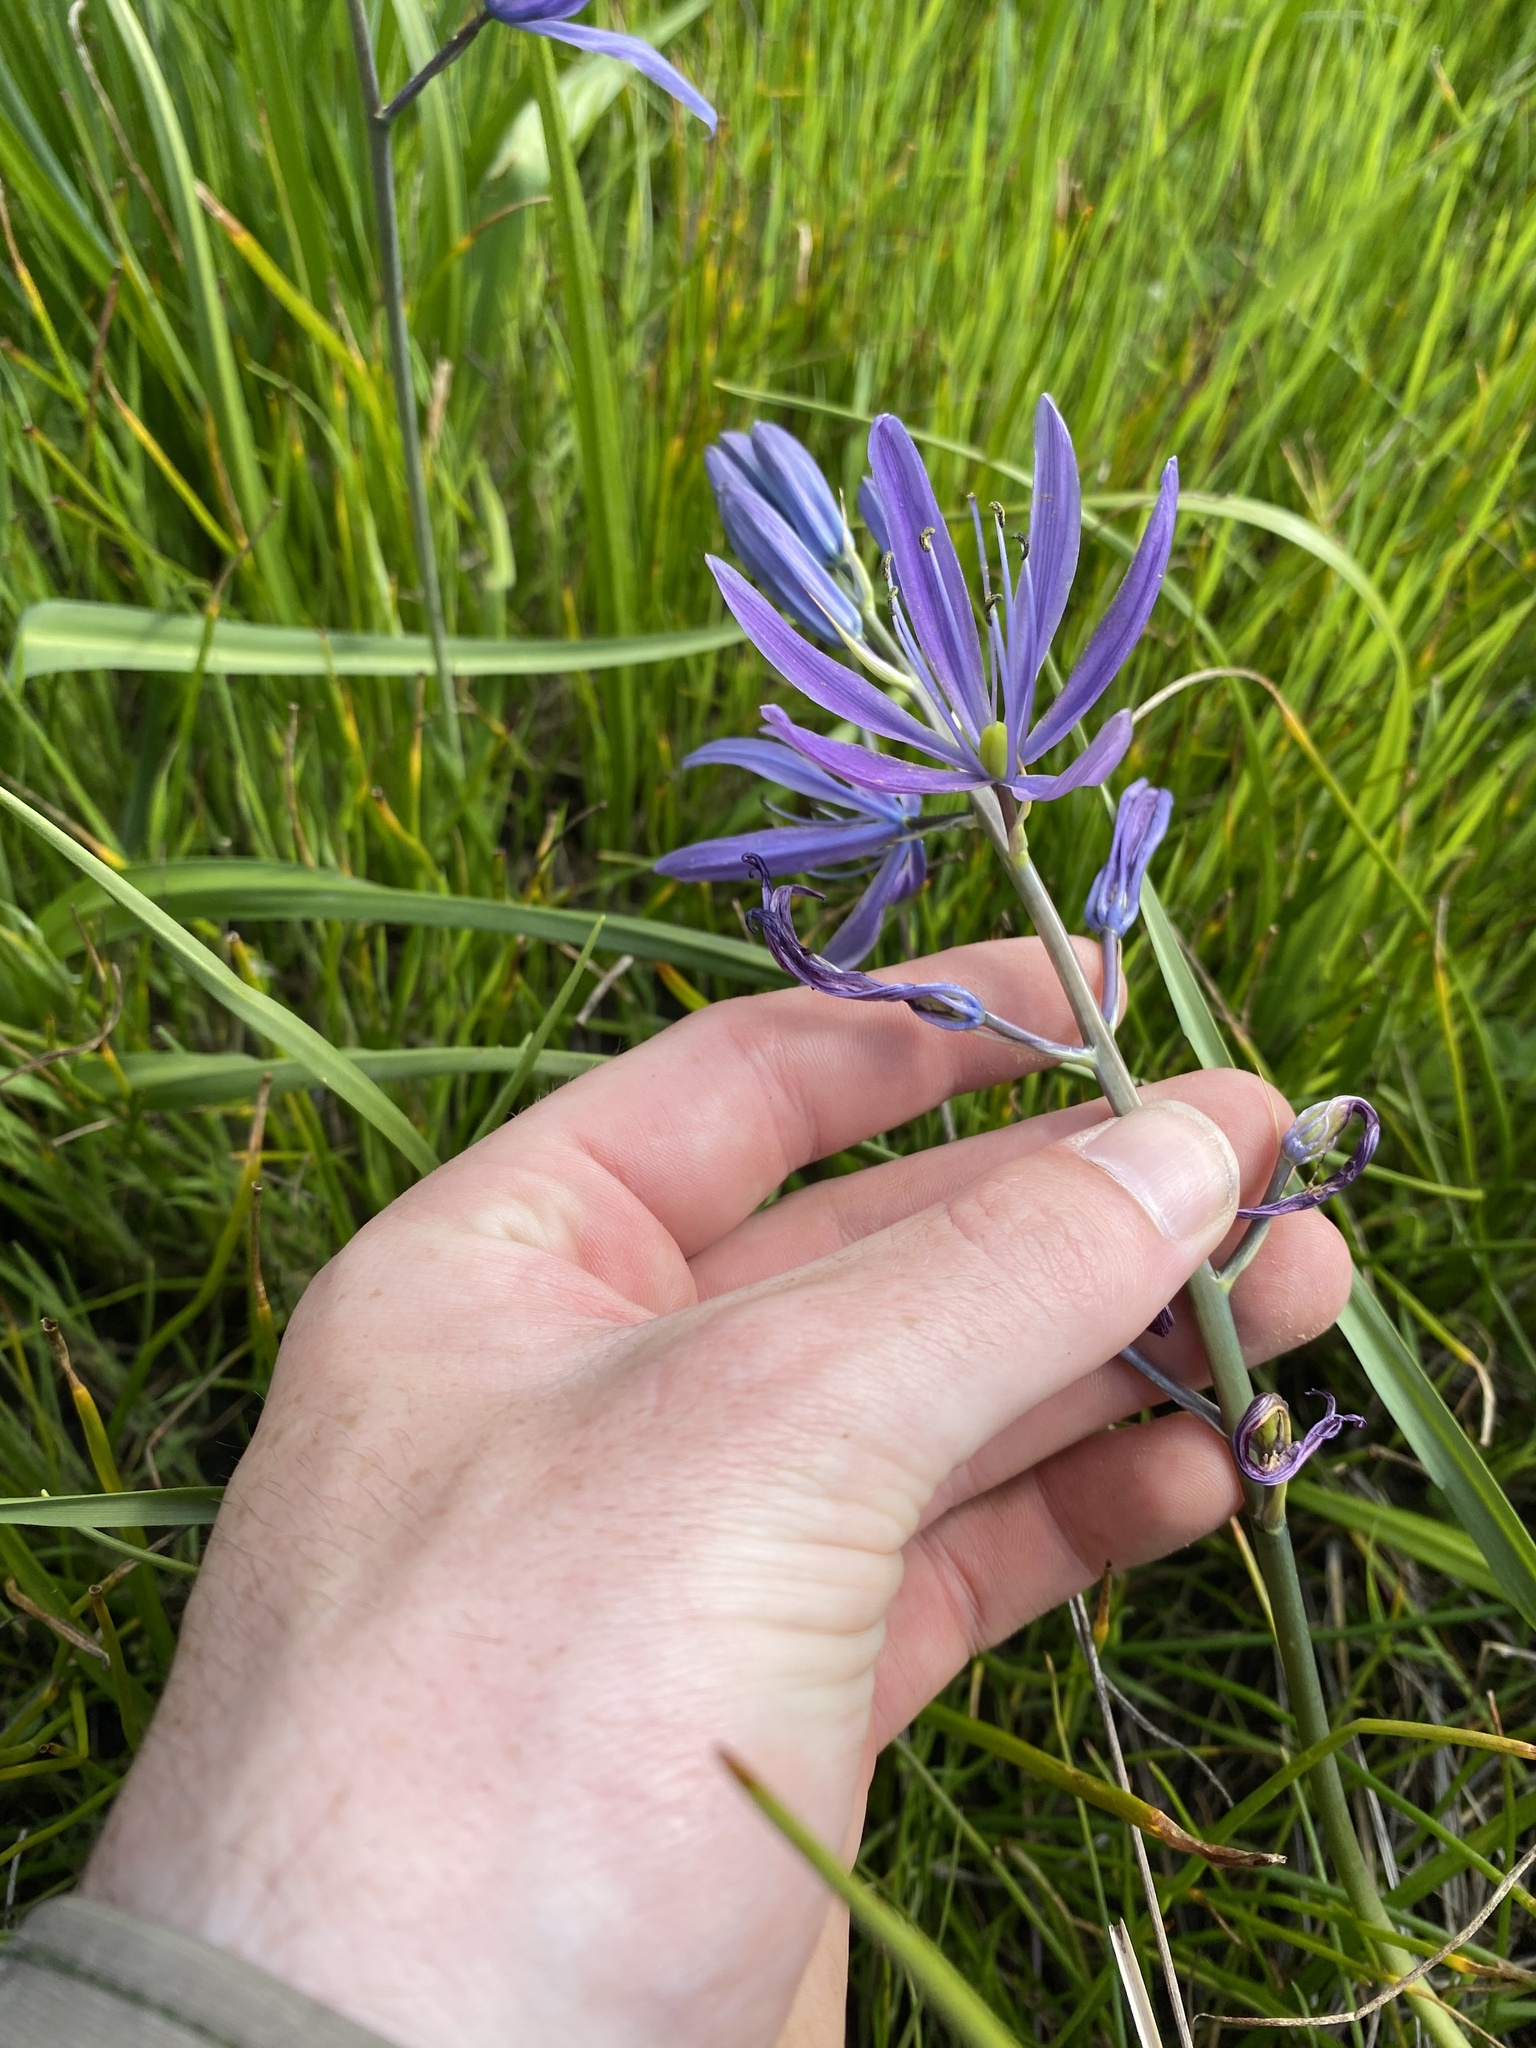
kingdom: Plantae
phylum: Tracheophyta
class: Liliopsida
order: Asparagales
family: Asparagaceae
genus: Camassia
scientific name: Camassia leichtlinii
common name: Leichtlin's camas
